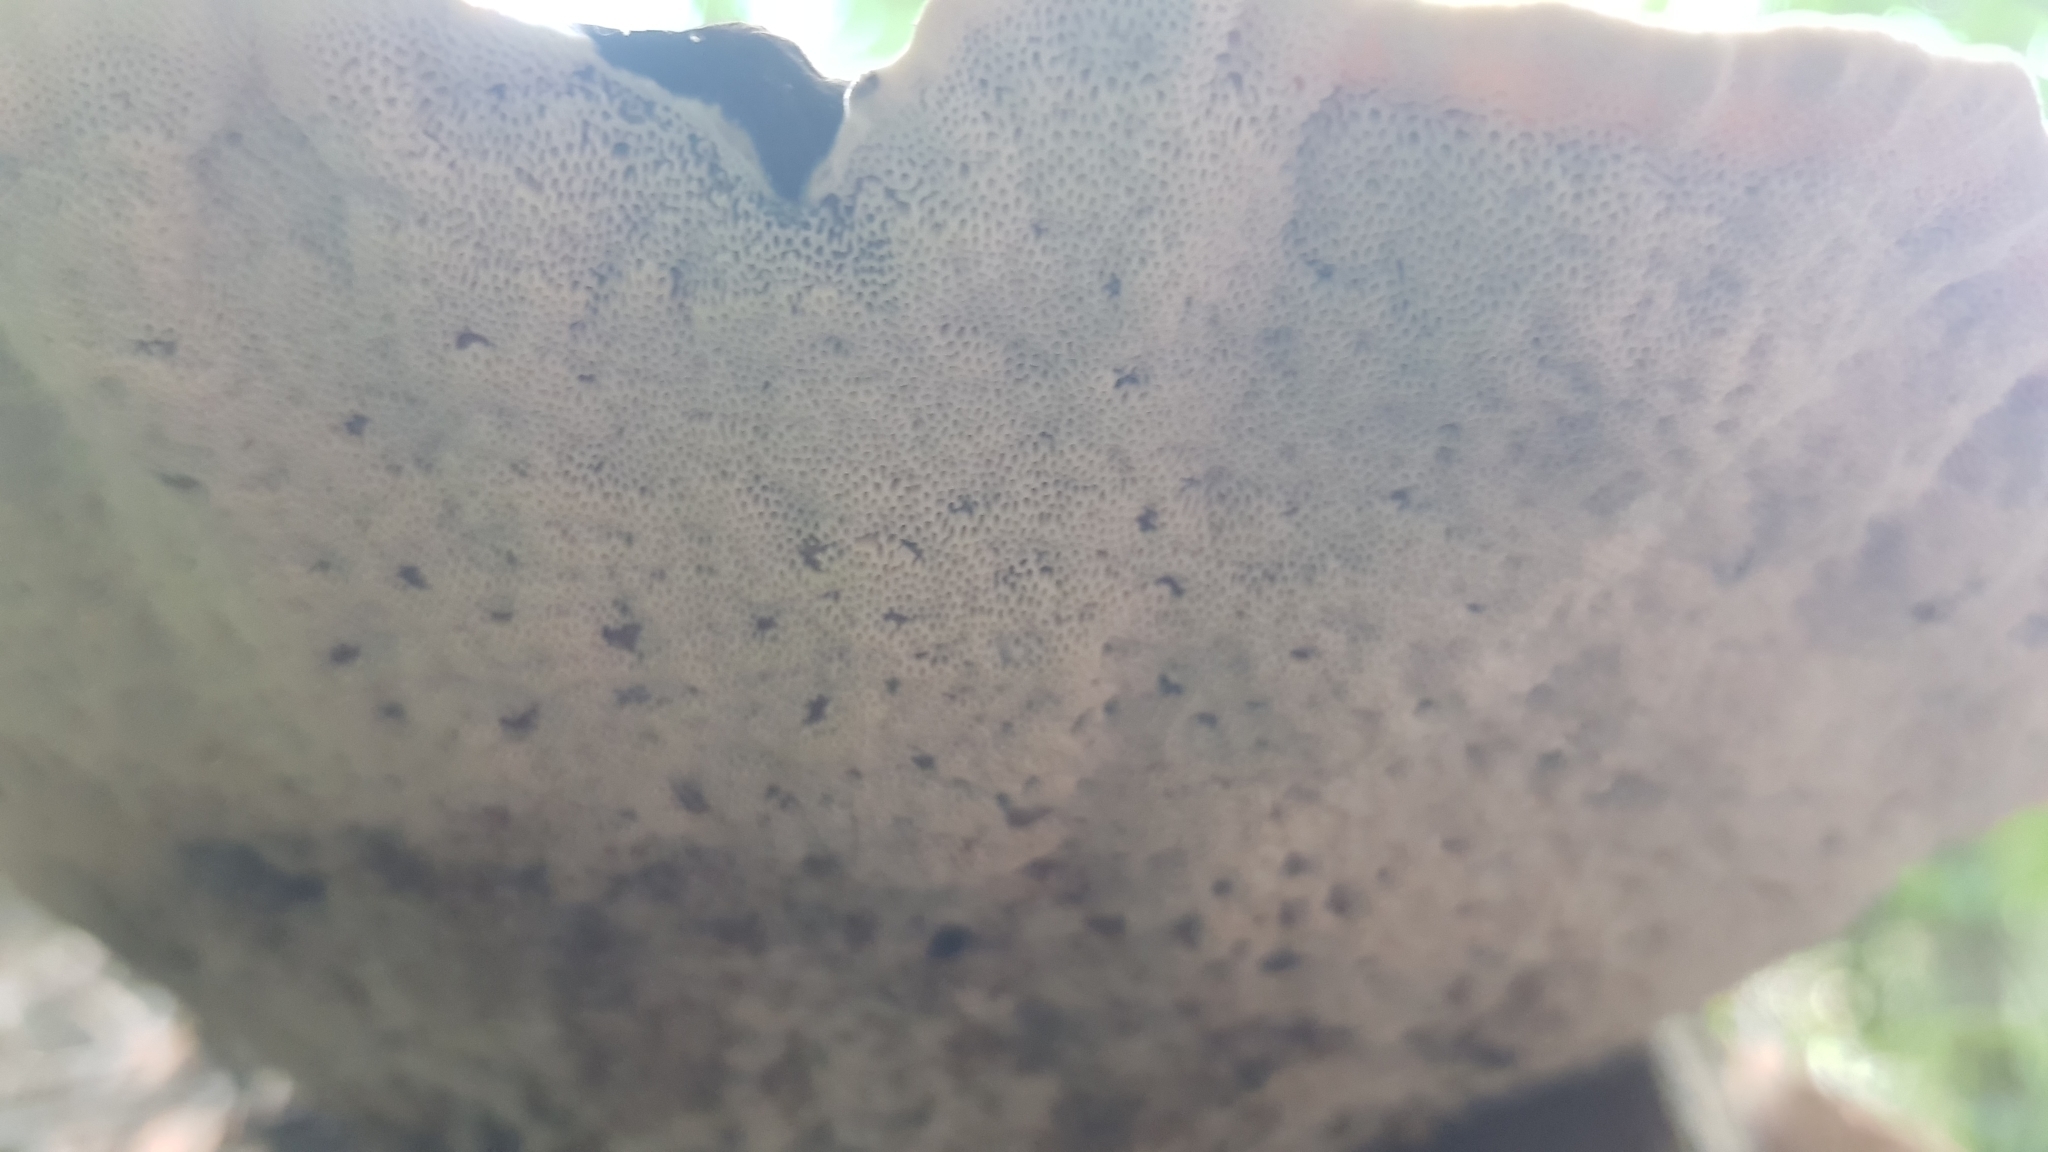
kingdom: Fungi
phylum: Basidiomycota
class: Agaricomycetes
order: Polyporales
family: Ganodermataceae
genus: Sanguinoderma
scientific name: Sanguinoderma rude
